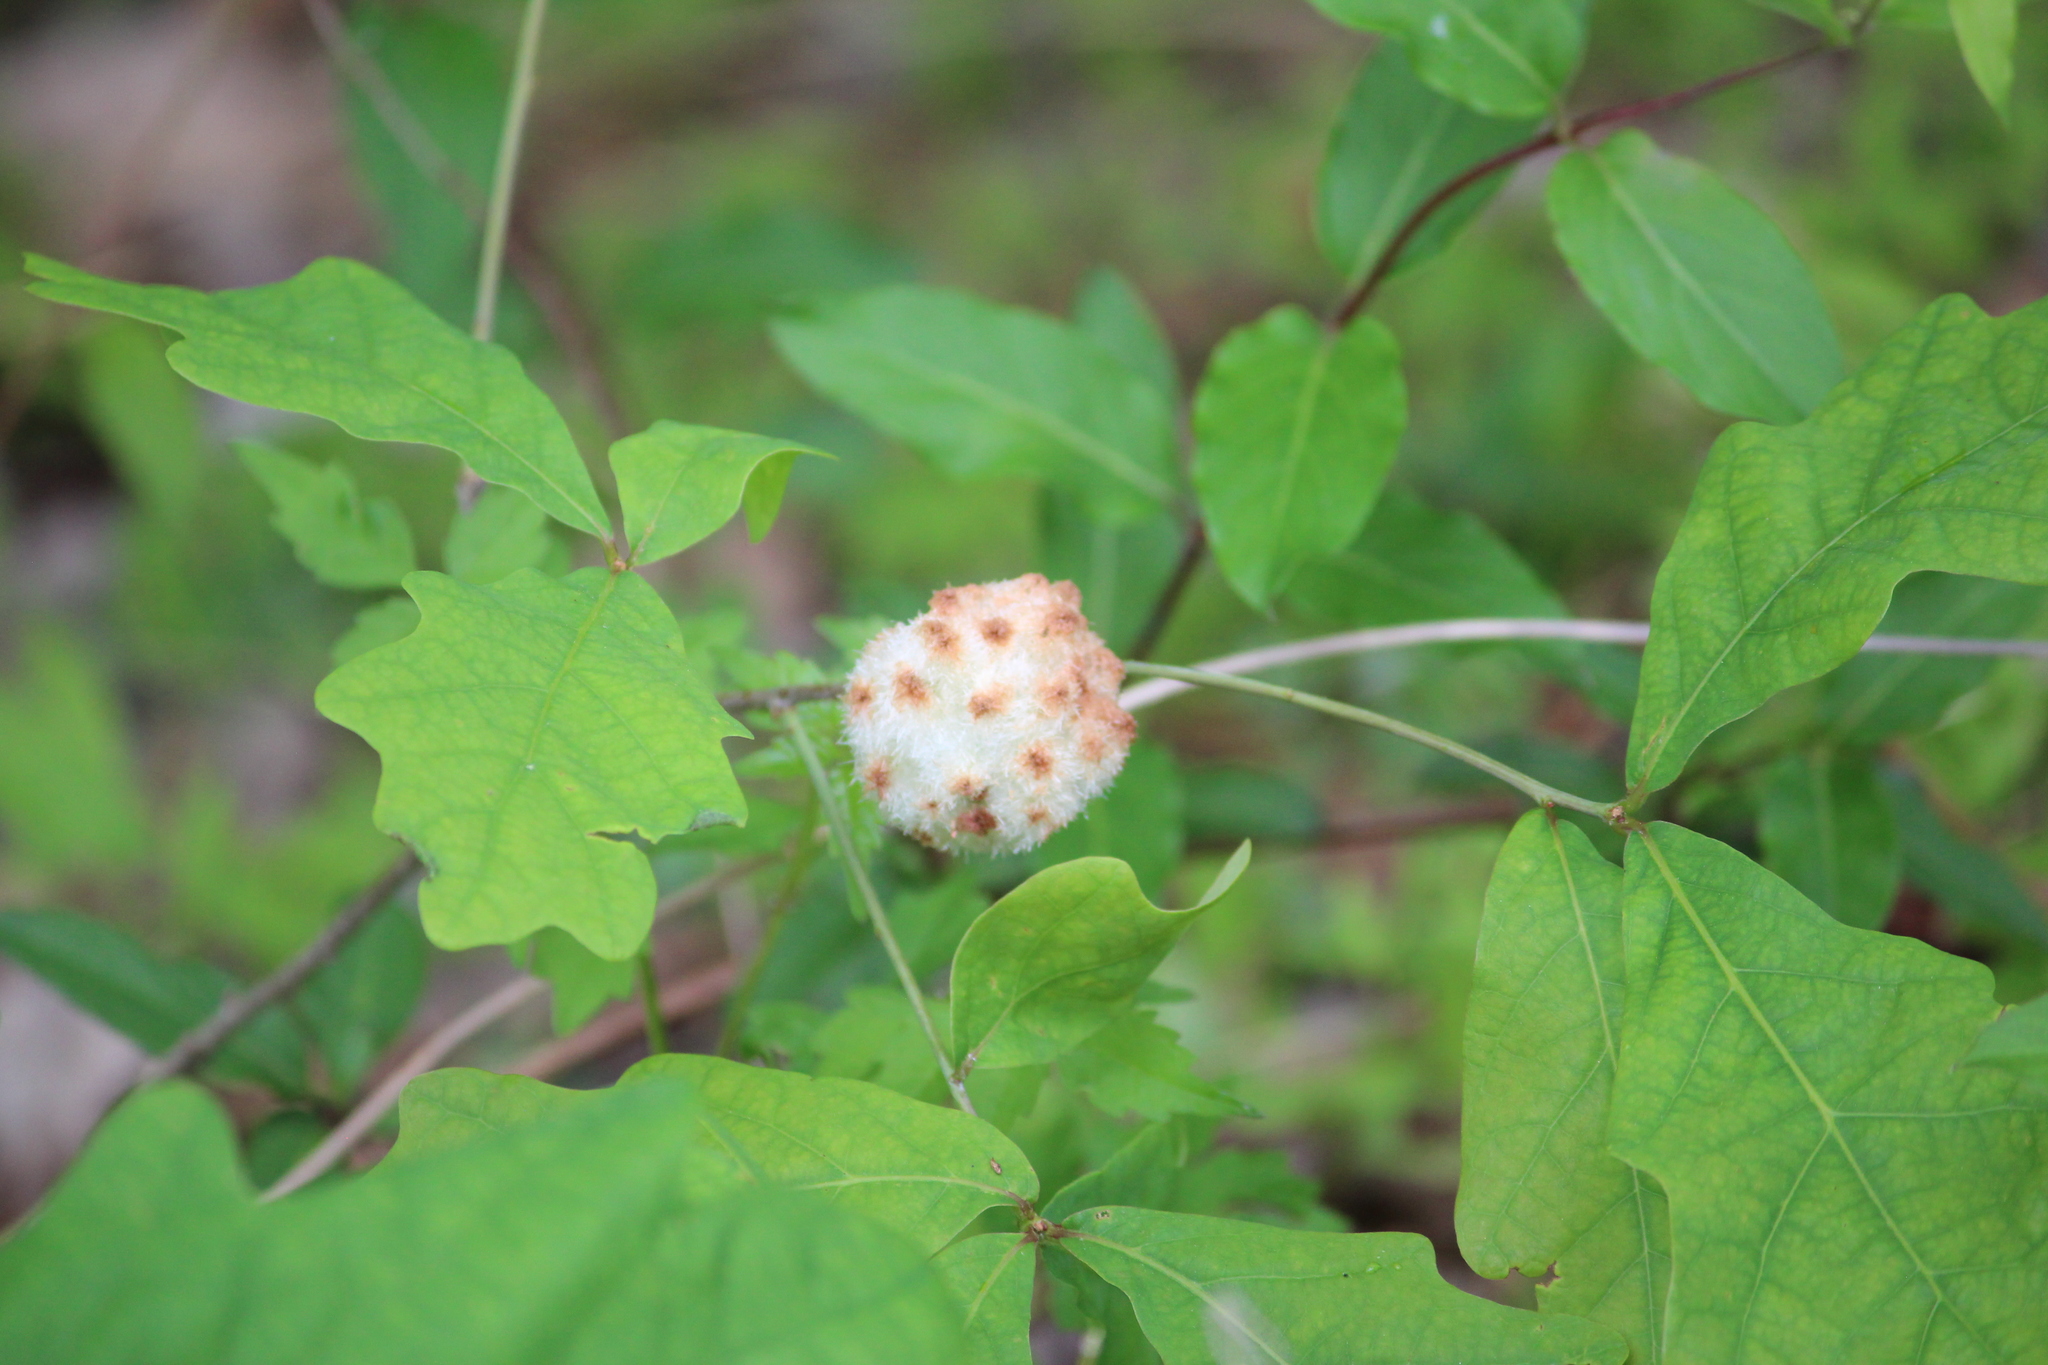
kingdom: Animalia
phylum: Arthropoda
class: Insecta
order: Hymenoptera
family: Cynipidae
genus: Callirhytis
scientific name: Callirhytis
